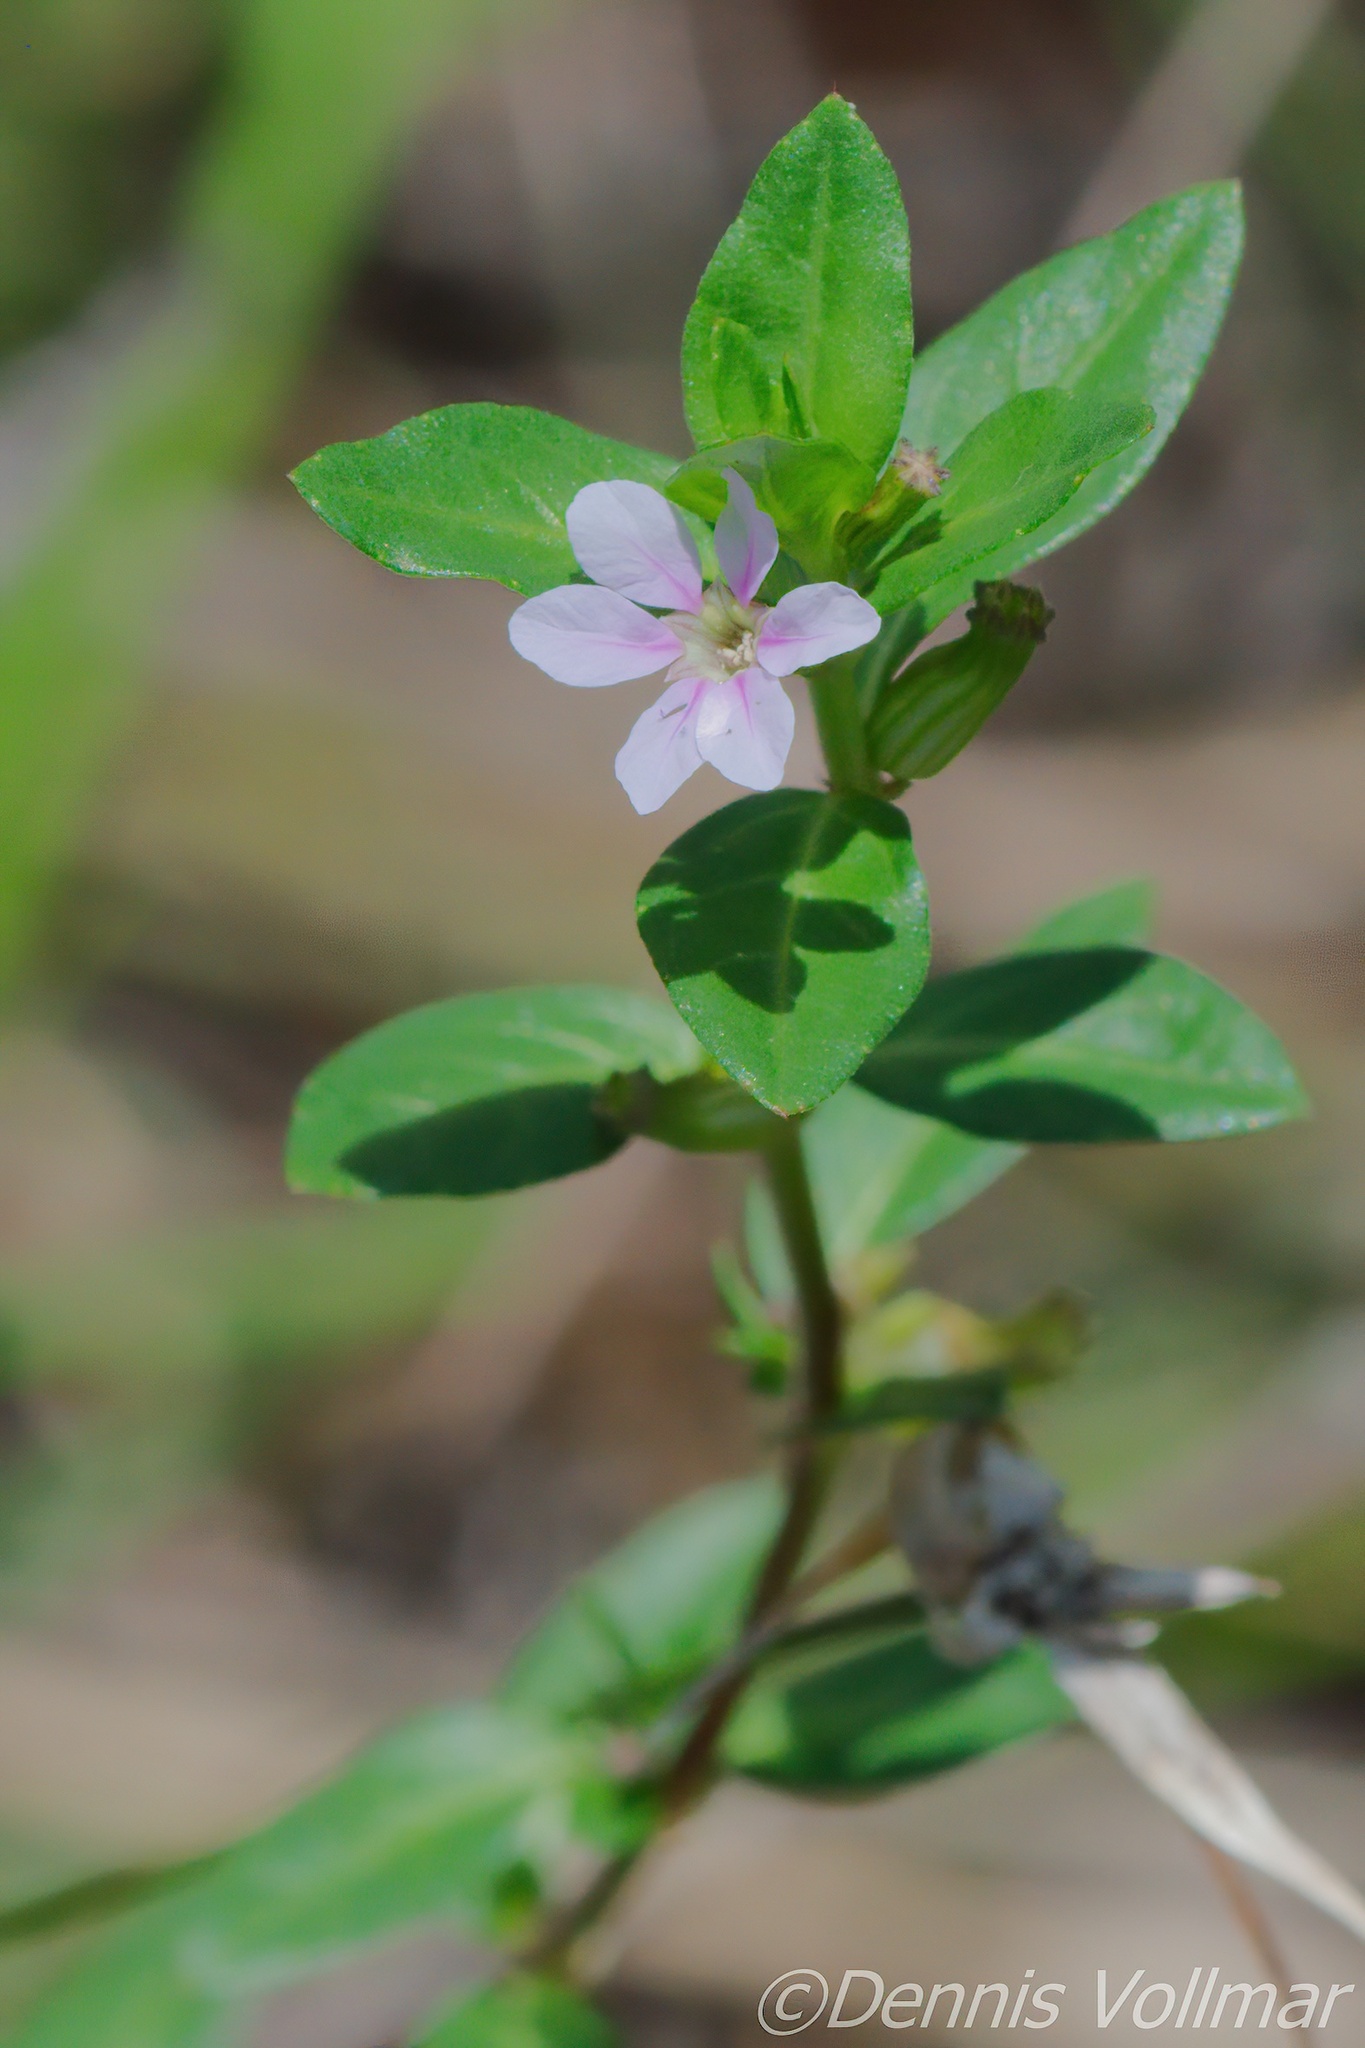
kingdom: Plantae
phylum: Tracheophyta
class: Magnoliopsida
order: Myrtales
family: Lythraceae
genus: Cuphea
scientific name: Cuphea strigulosa
